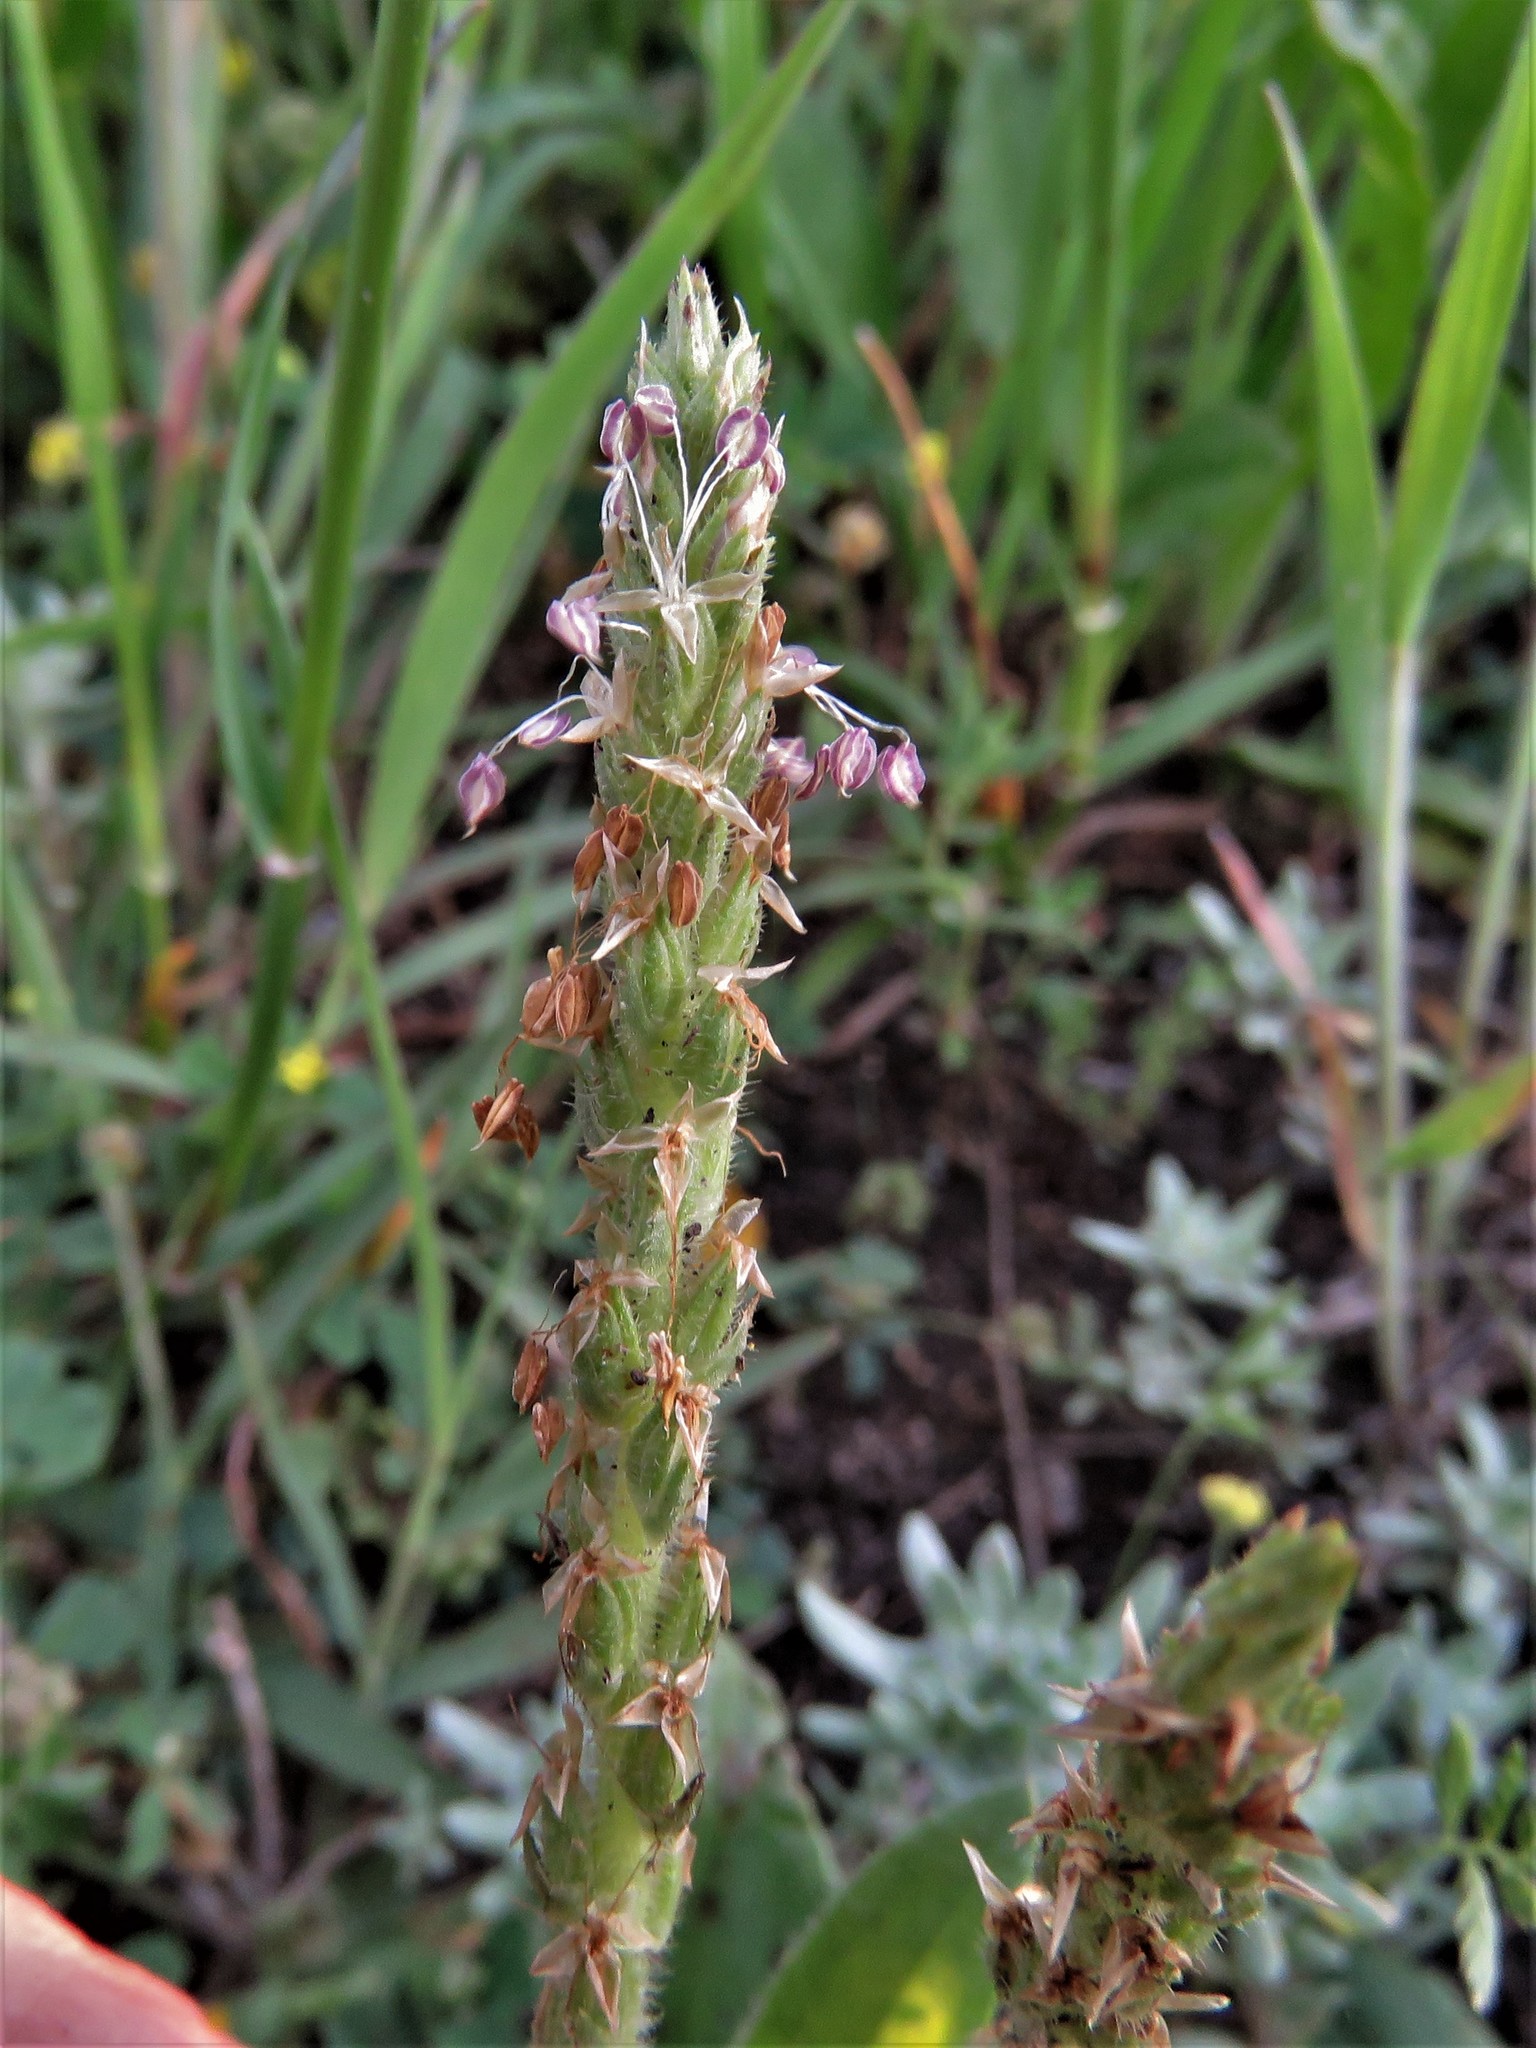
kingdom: Plantae
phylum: Tracheophyta
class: Magnoliopsida
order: Lamiales
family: Plantaginaceae
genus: Plantago
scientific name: Plantago rhodosperma
